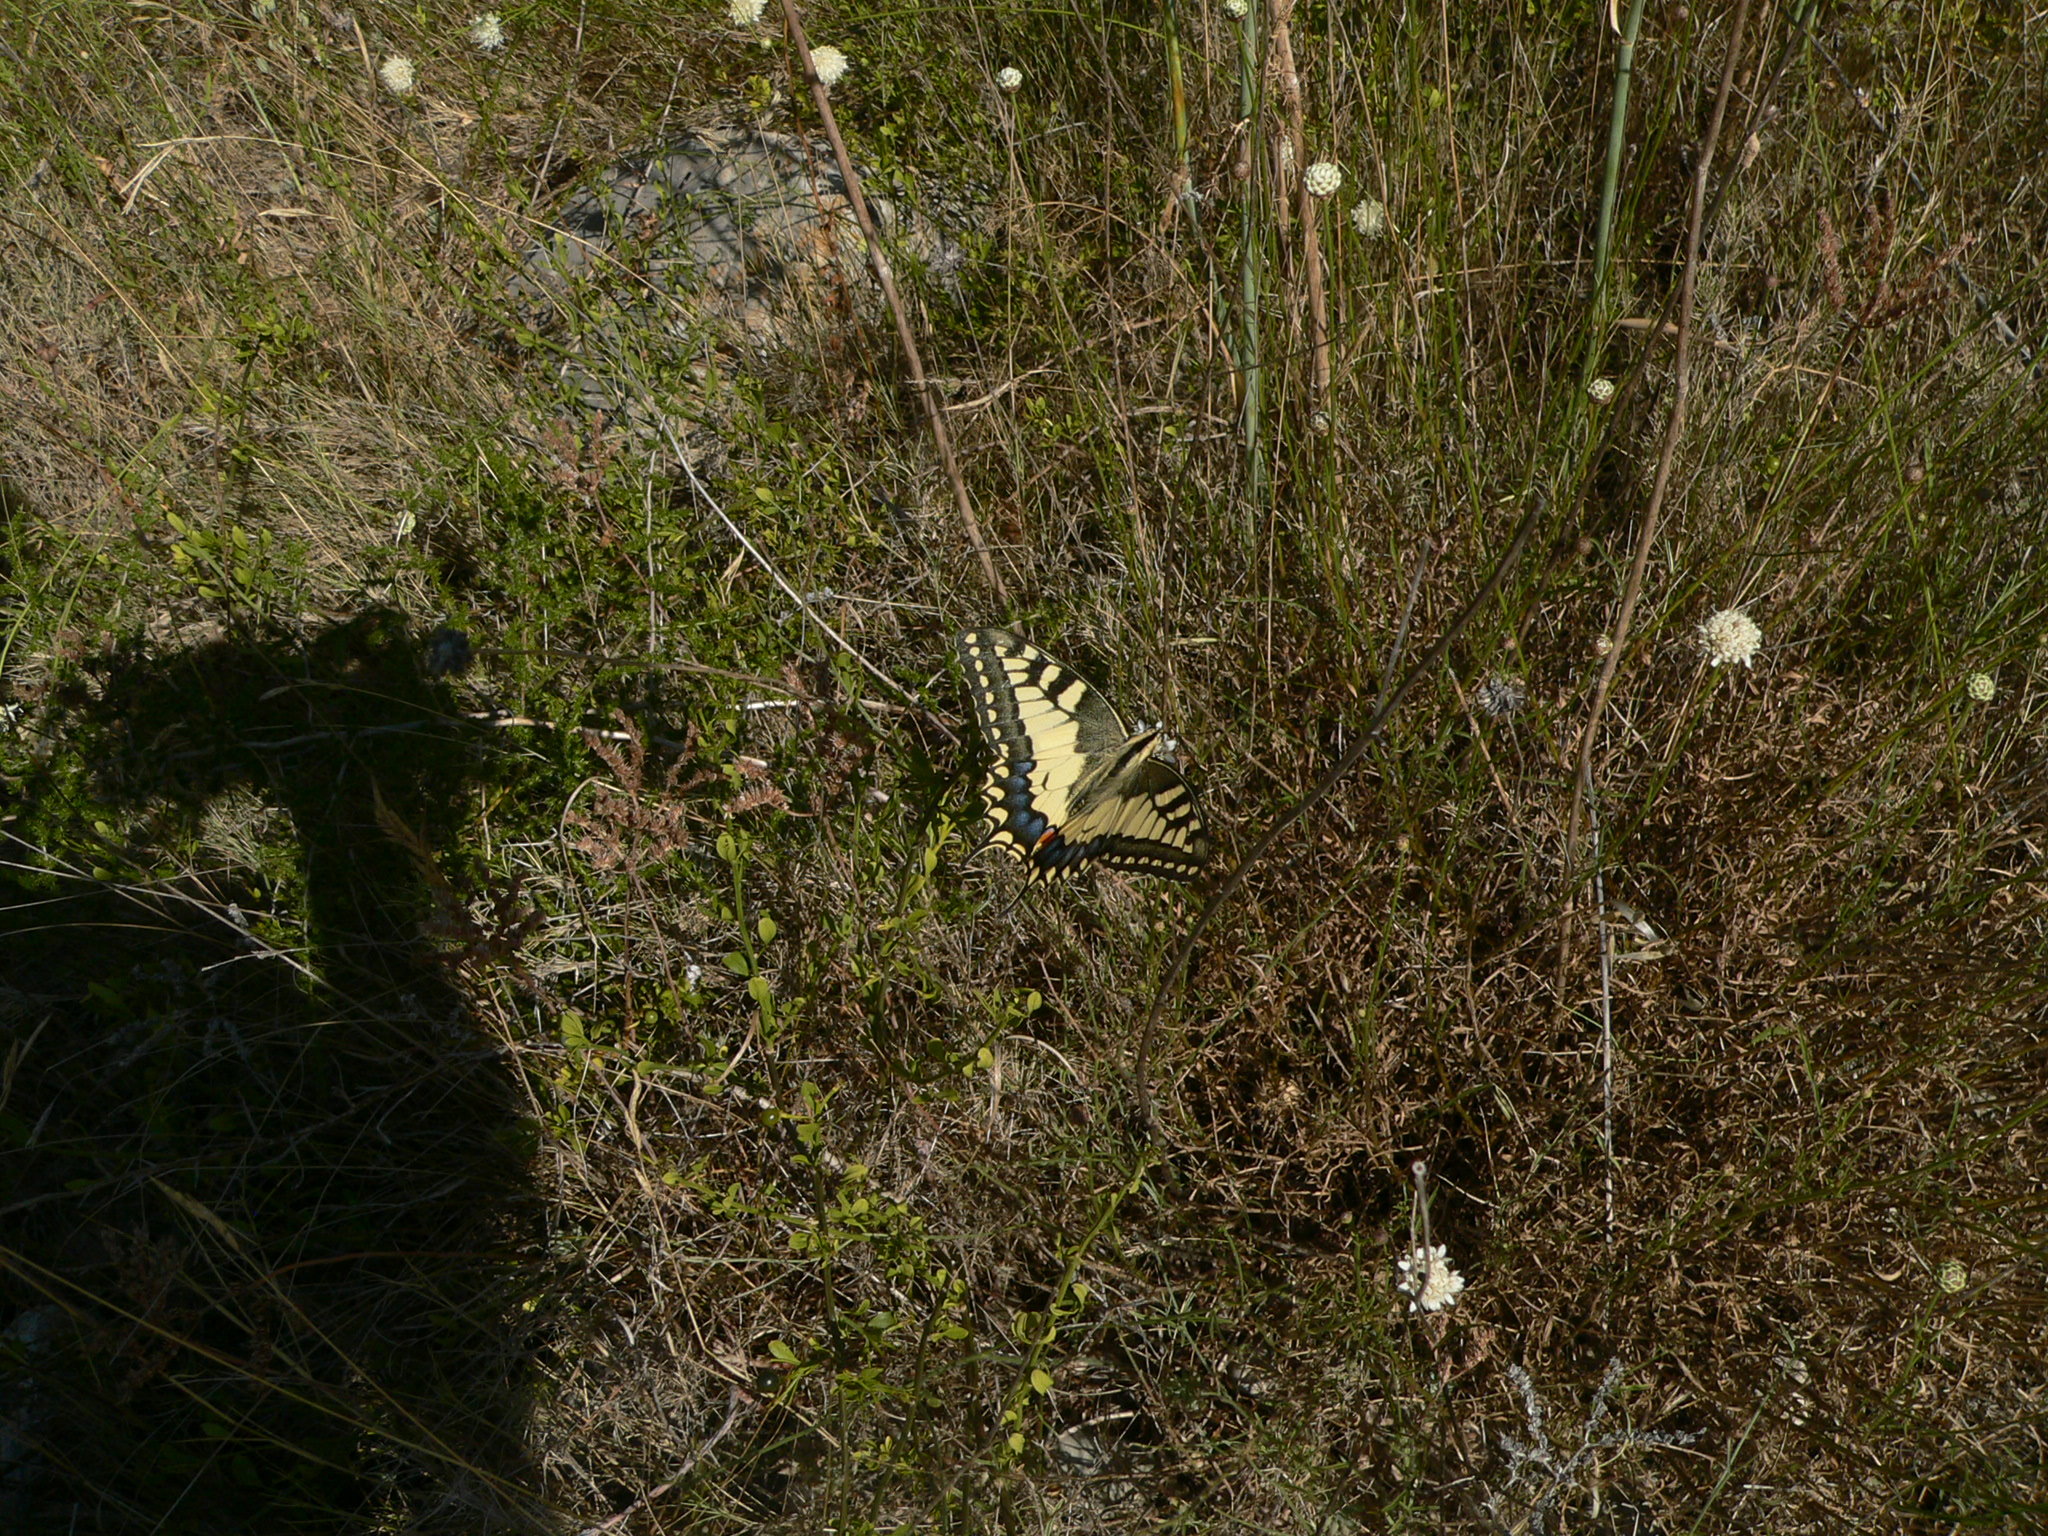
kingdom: Animalia
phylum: Arthropoda
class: Insecta
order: Lepidoptera
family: Papilionidae
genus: Papilio
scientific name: Papilio machaon
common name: Swallowtail
